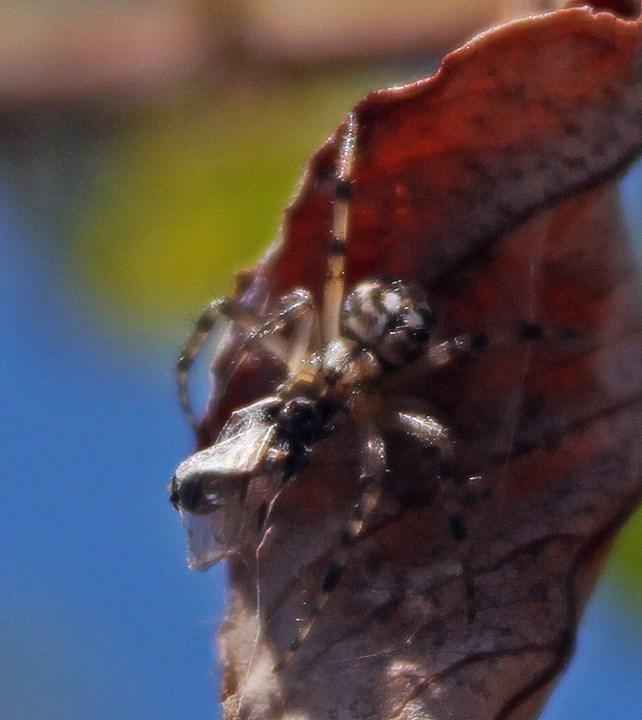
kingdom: Animalia
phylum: Arthropoda
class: Arachnida
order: Araneae
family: Araneidae
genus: Neoscona
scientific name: Neoscona adianta
